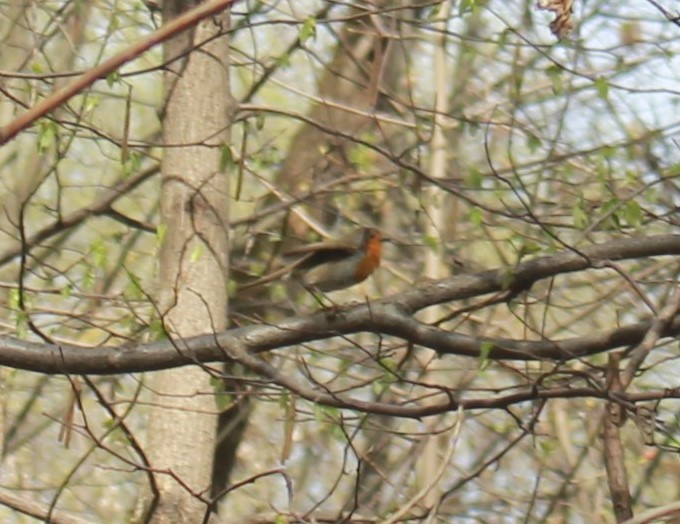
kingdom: Animalia
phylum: Chordata
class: Aves
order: Passeriformes
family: Muscicapidae
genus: Erithacus
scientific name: Erithacus rubecula
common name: European robin
